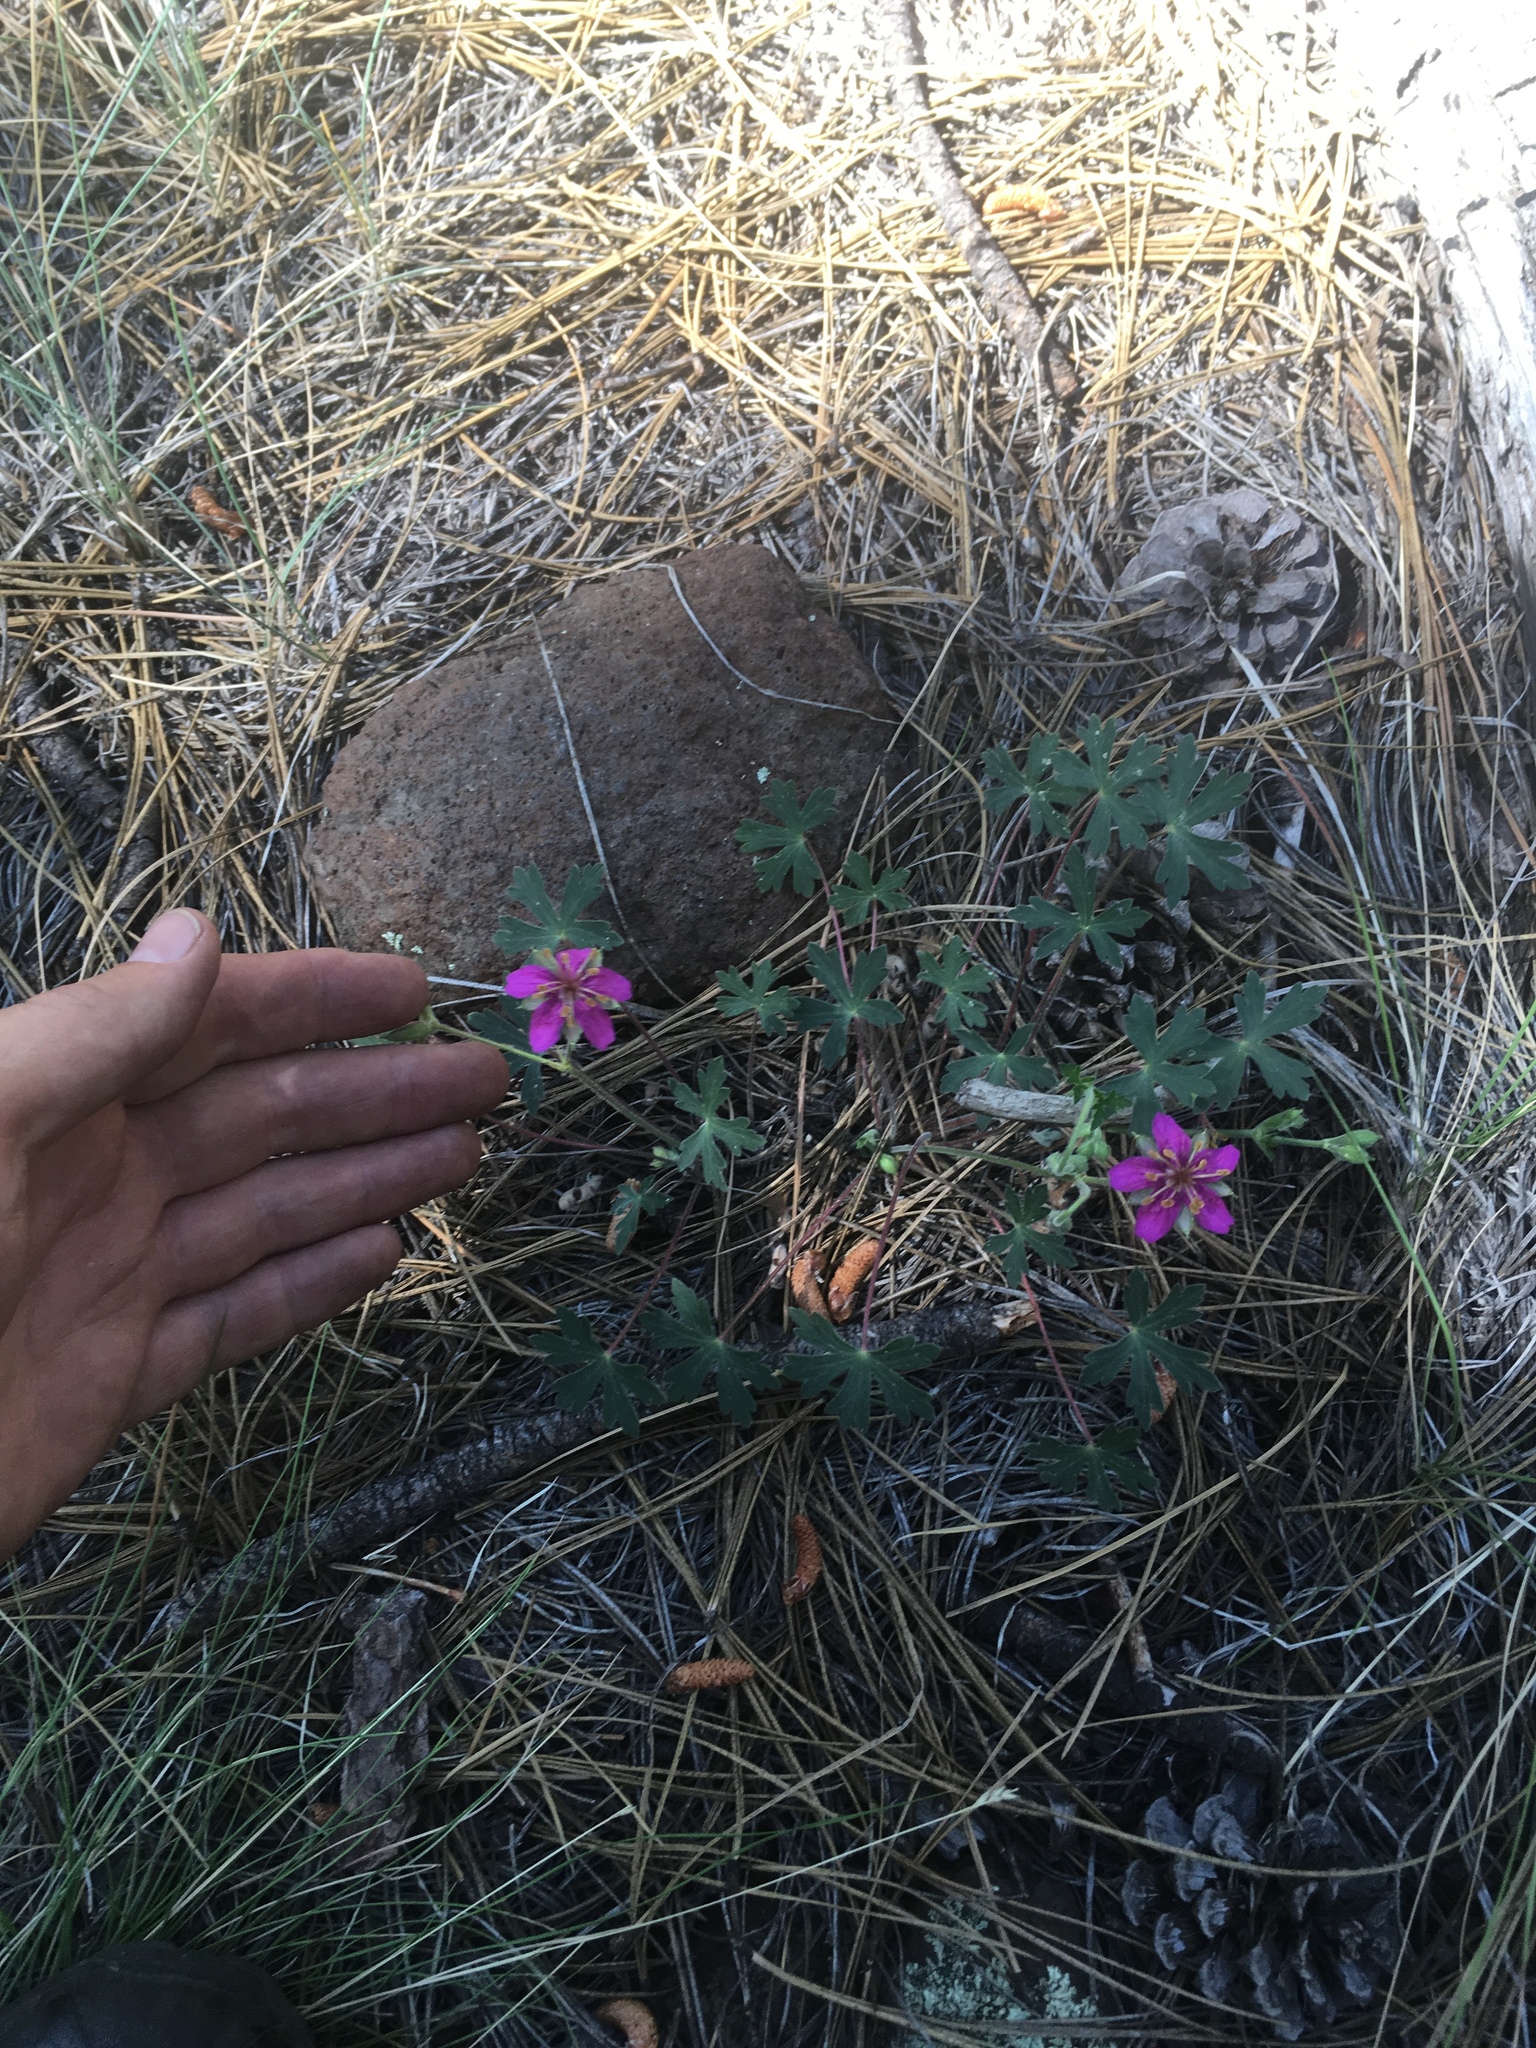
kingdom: Plantae
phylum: Tracheophyta
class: Magnoliopsida
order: Geraniales
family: Geraniaceae
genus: Geranium
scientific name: Geranium caespitosum
